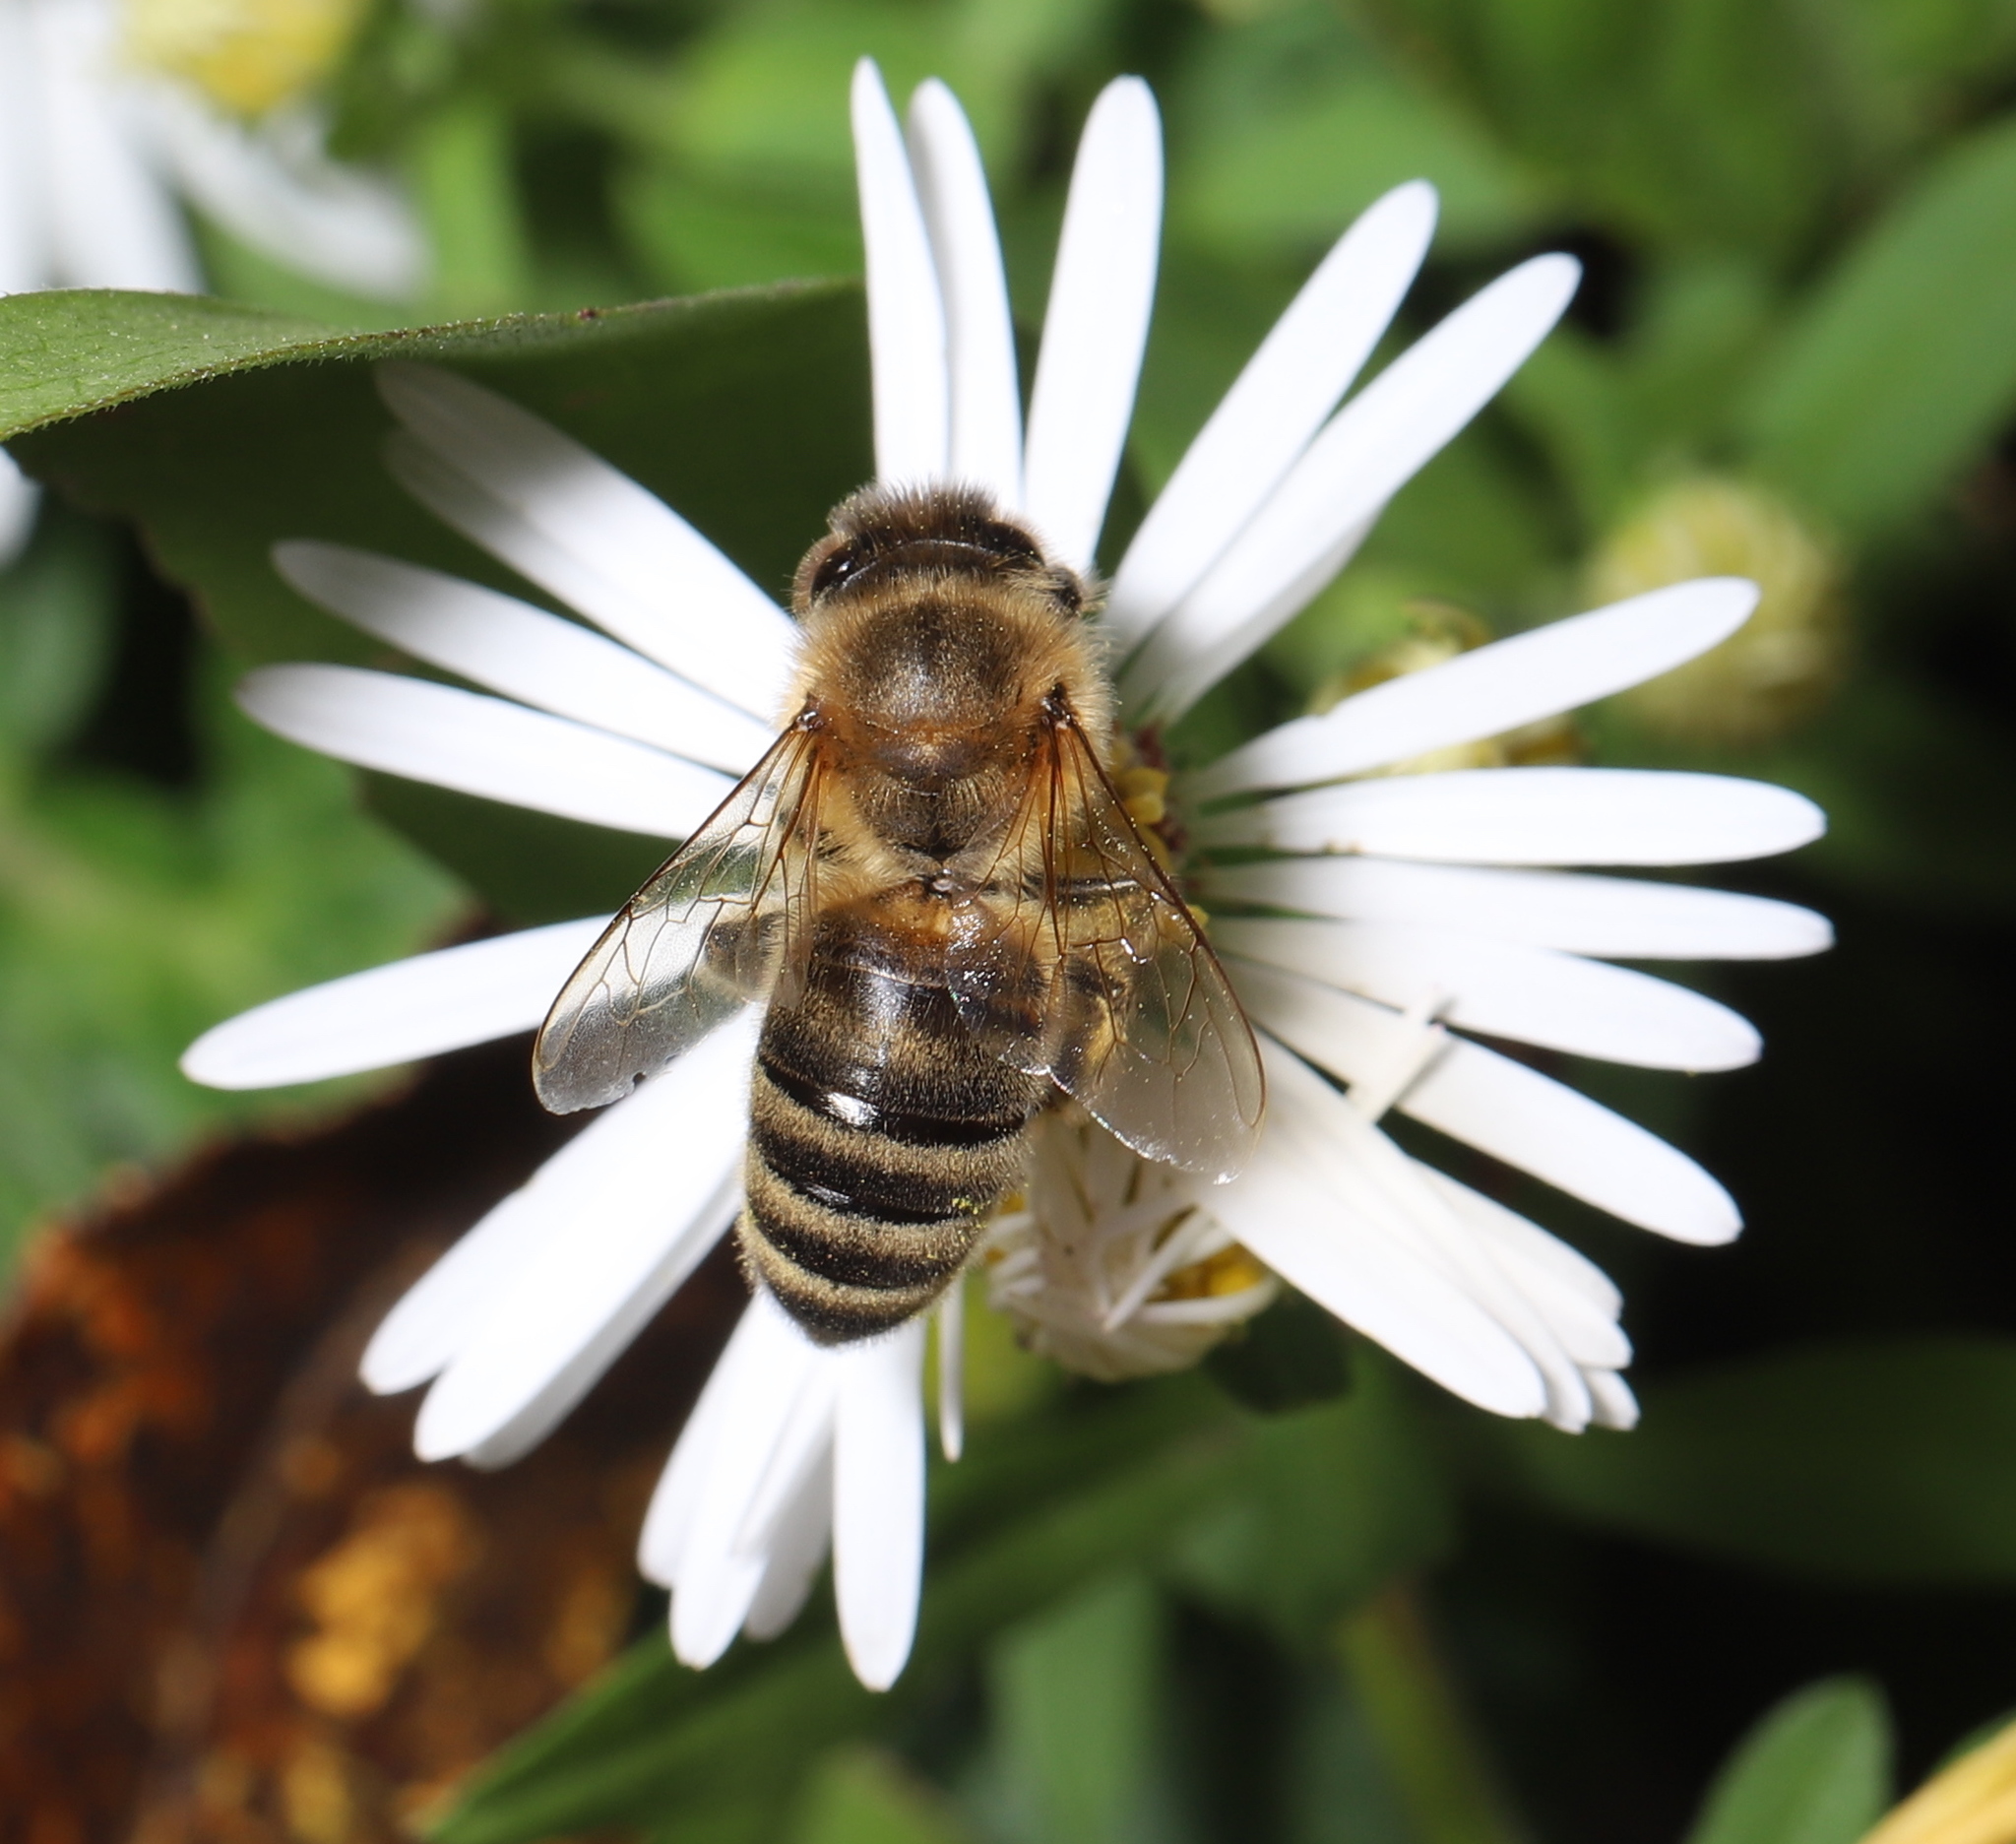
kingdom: Animalia
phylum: Arthropoda
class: Insecta
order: Hymenoptera
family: Apidae
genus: Apis
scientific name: Apis mellifera
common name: Honey bee
